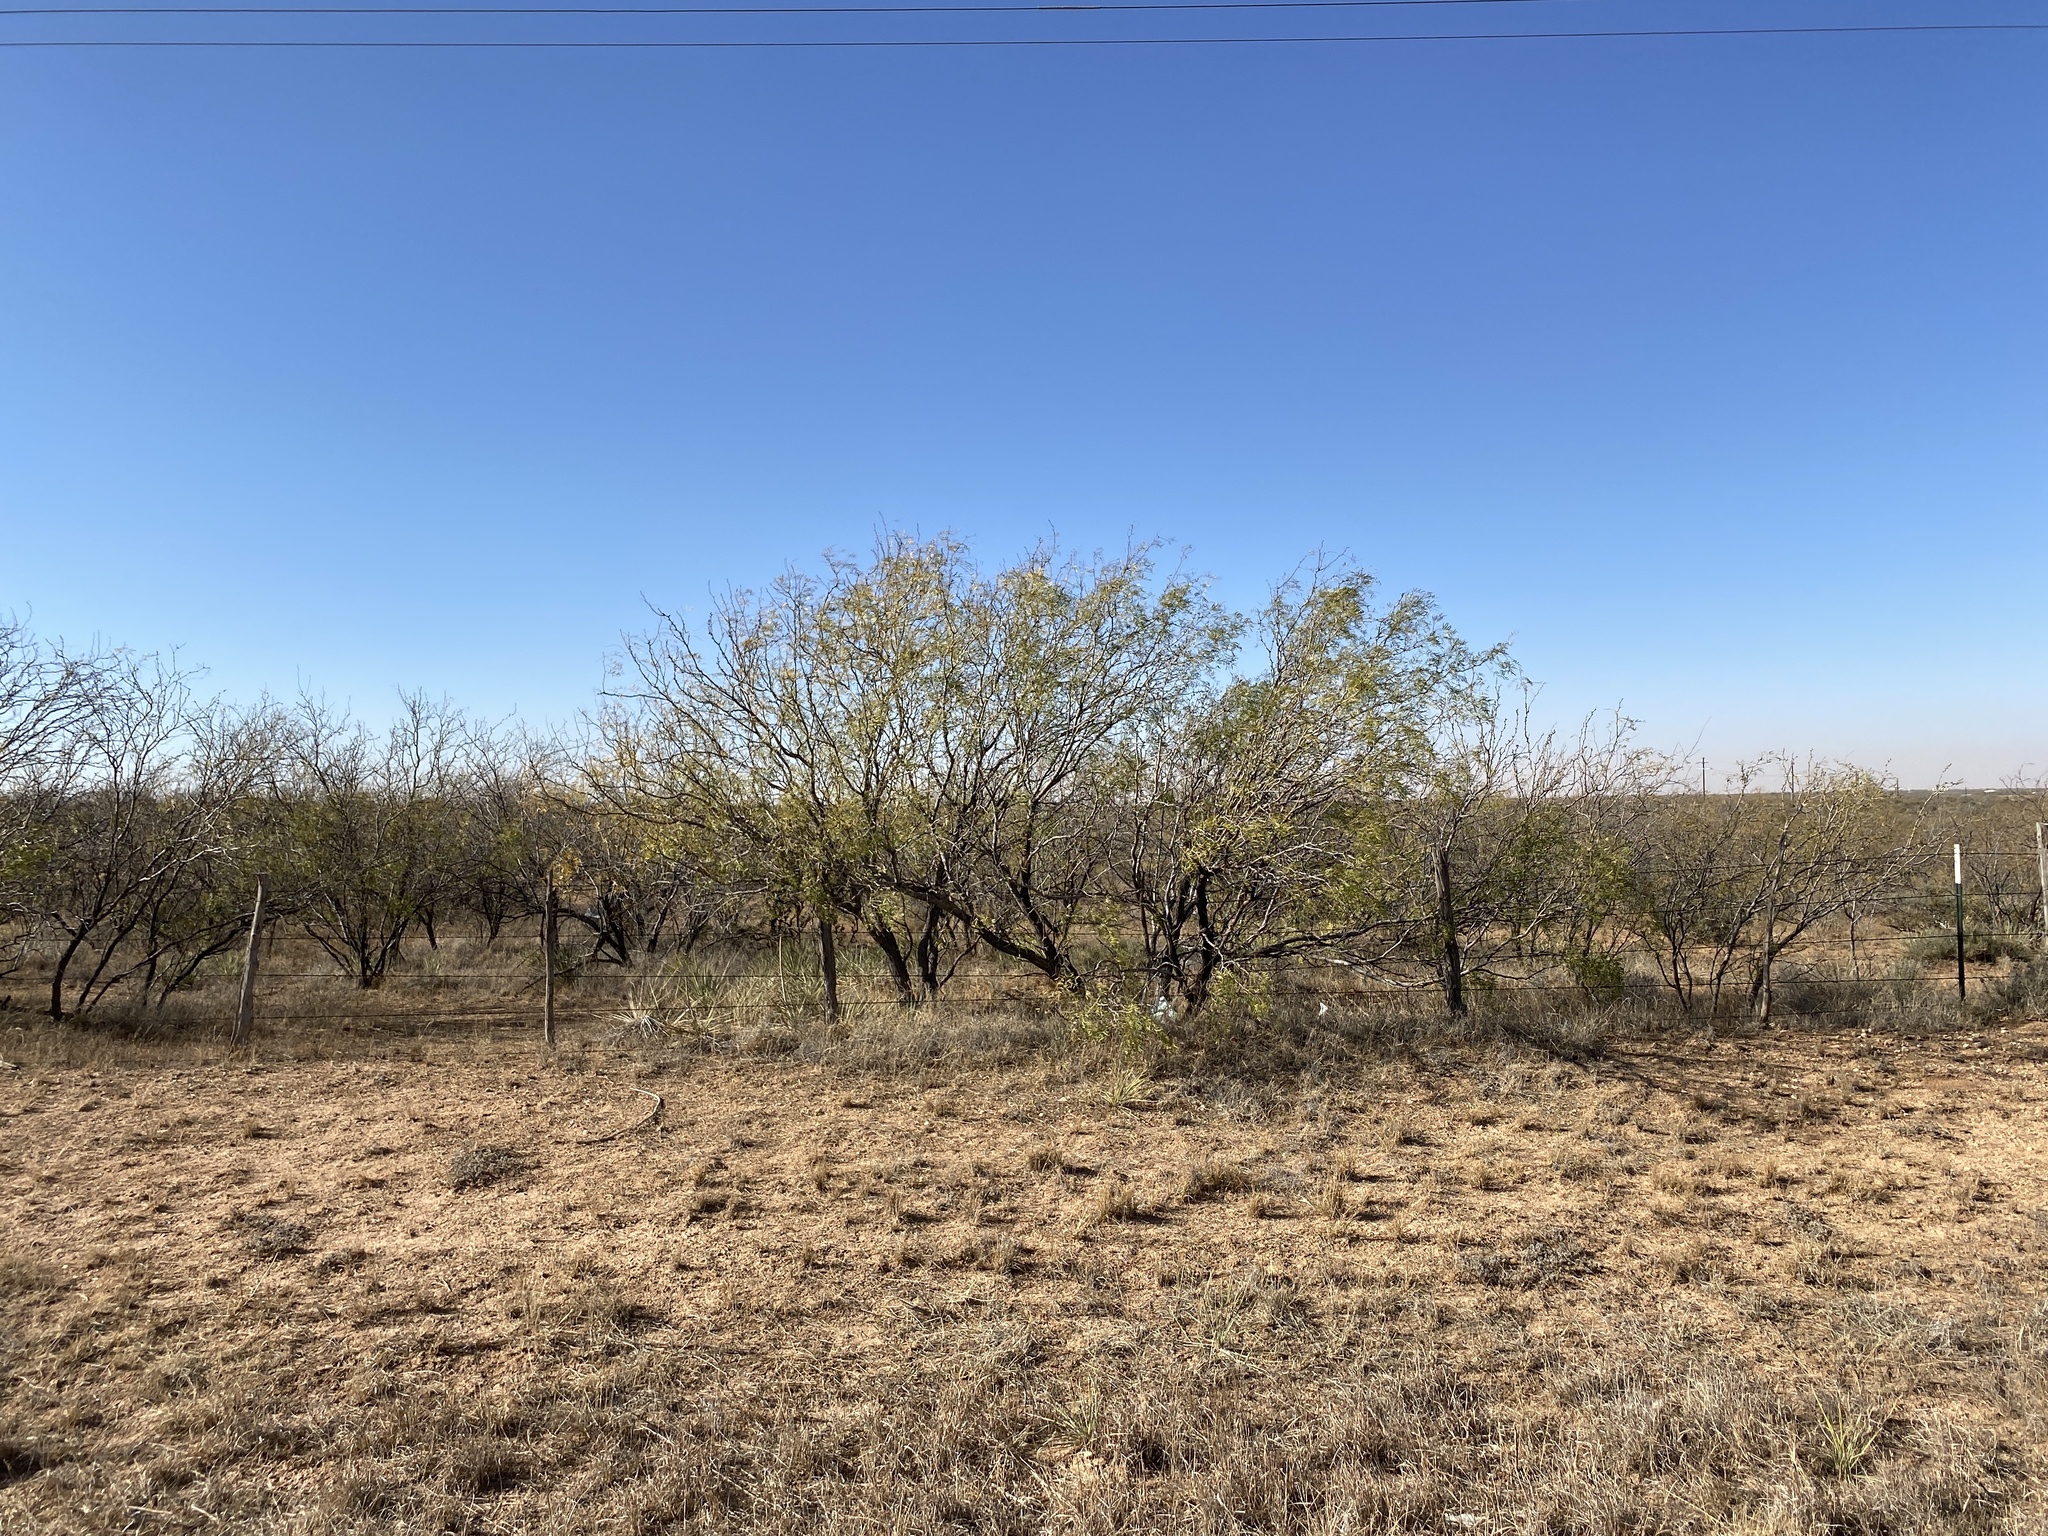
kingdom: Plantae
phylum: Tracheophyta
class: Magnoliopsida
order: Fabales
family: Fabaceae
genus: Prosopis
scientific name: Prosopis glandulosa
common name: Honey mesquite
